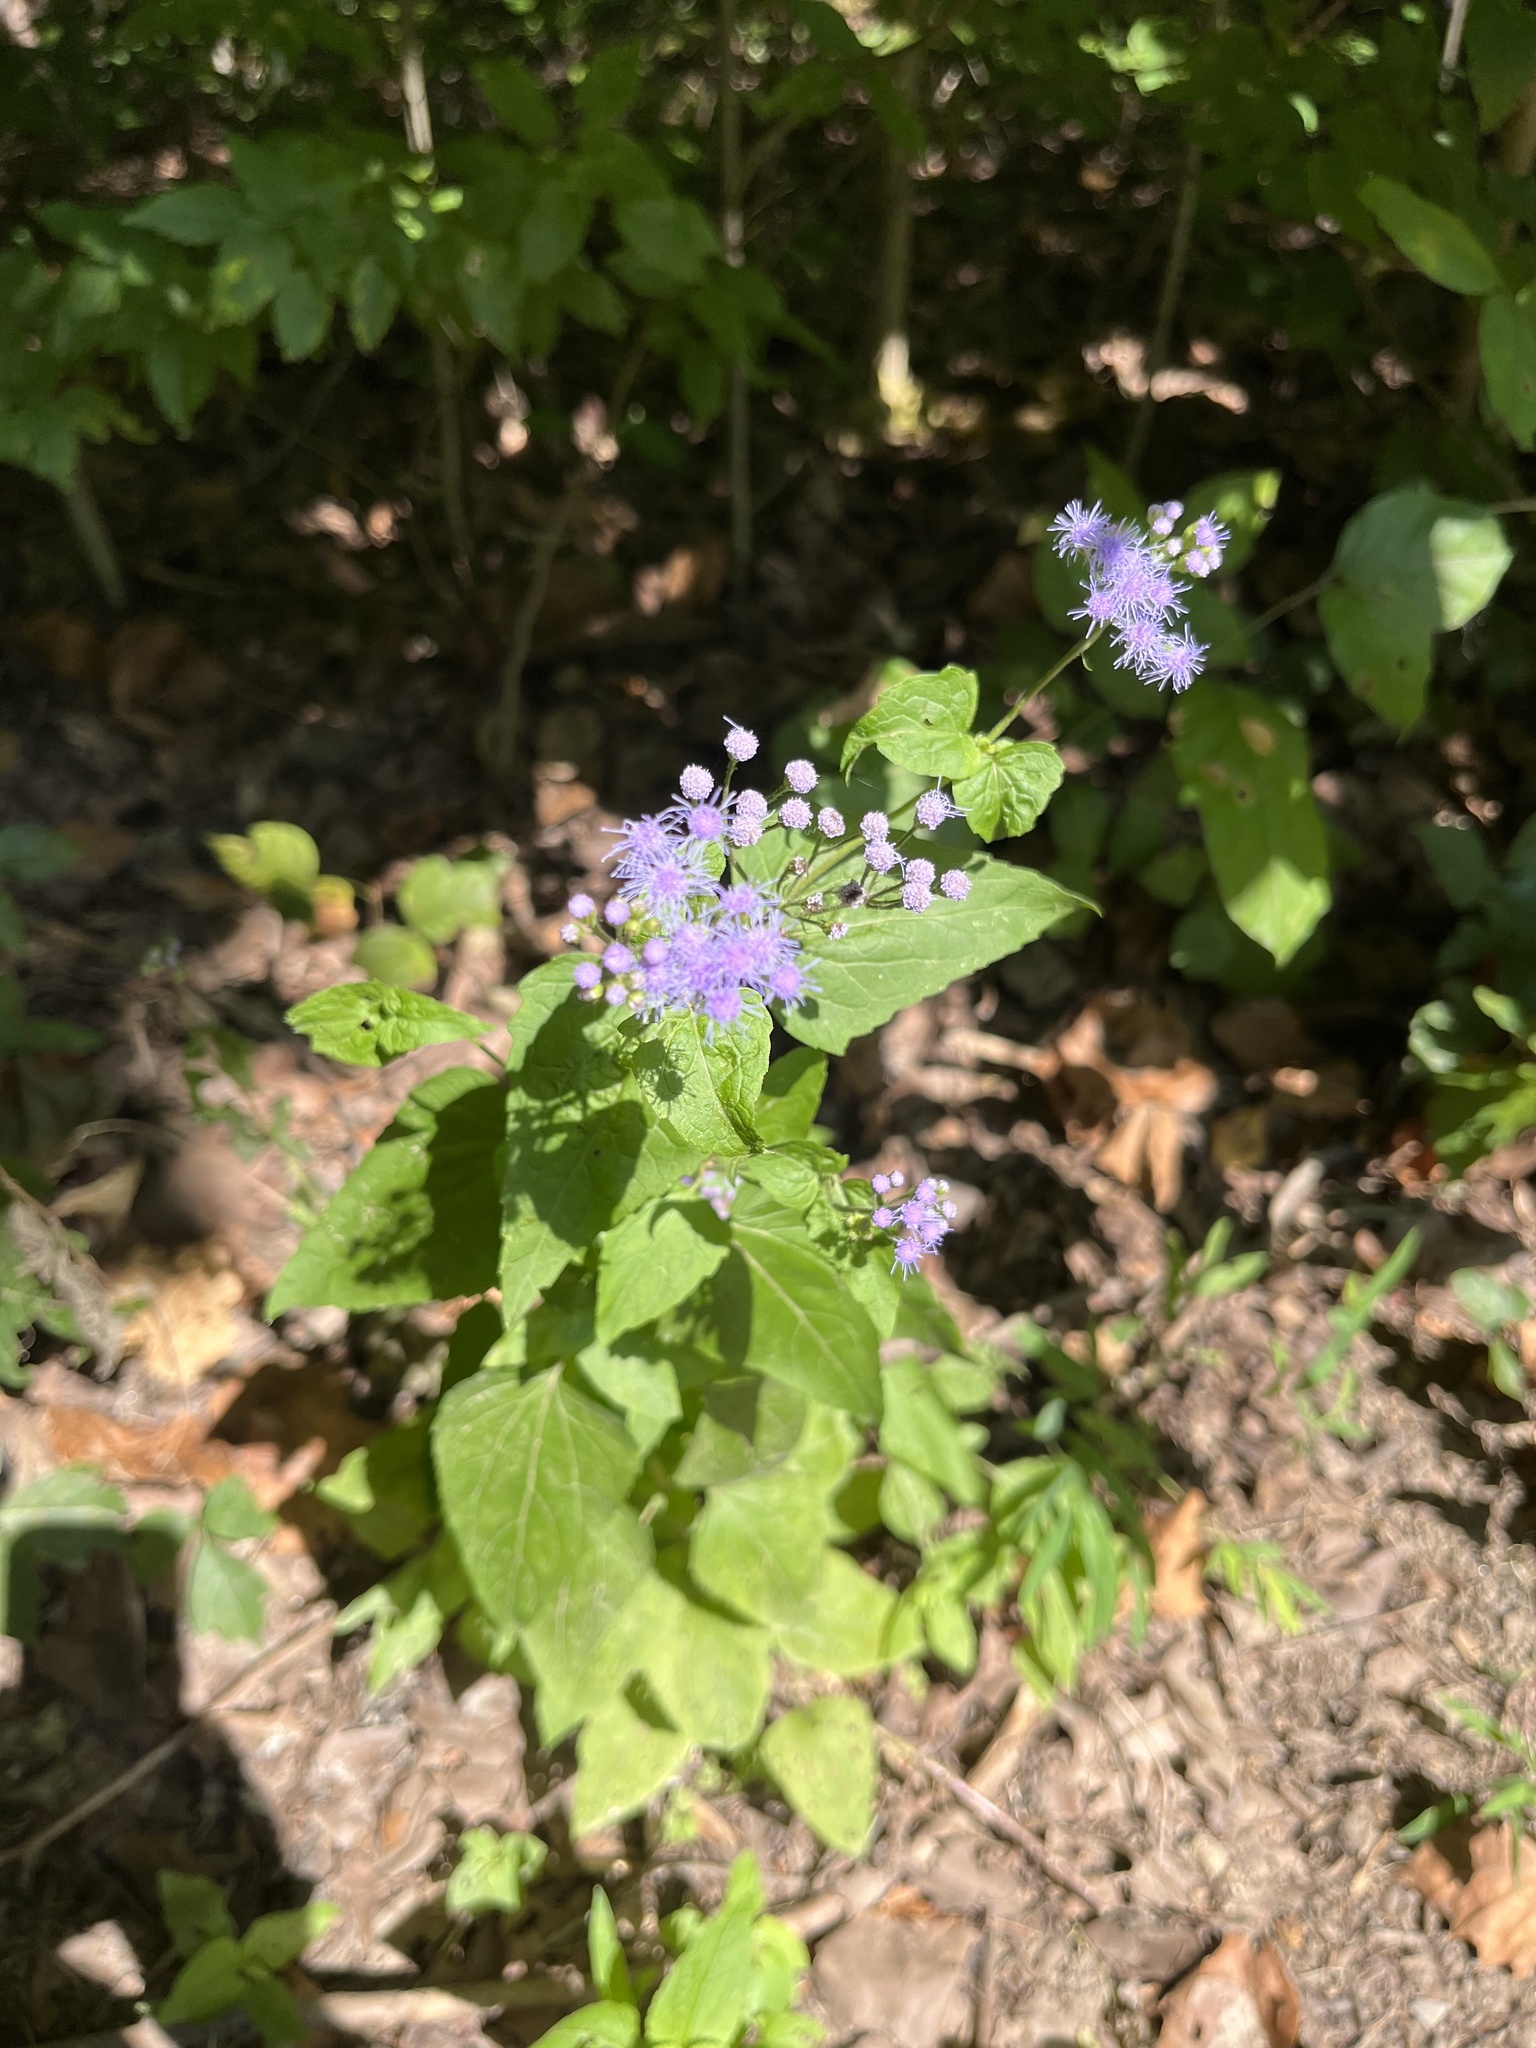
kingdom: Plantae
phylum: Tracheophyta
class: Magnoliopsida
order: Asterales
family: Asteraceae
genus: Conoclinium
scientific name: Conoclinium coelestinum
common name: Blue mistflower
